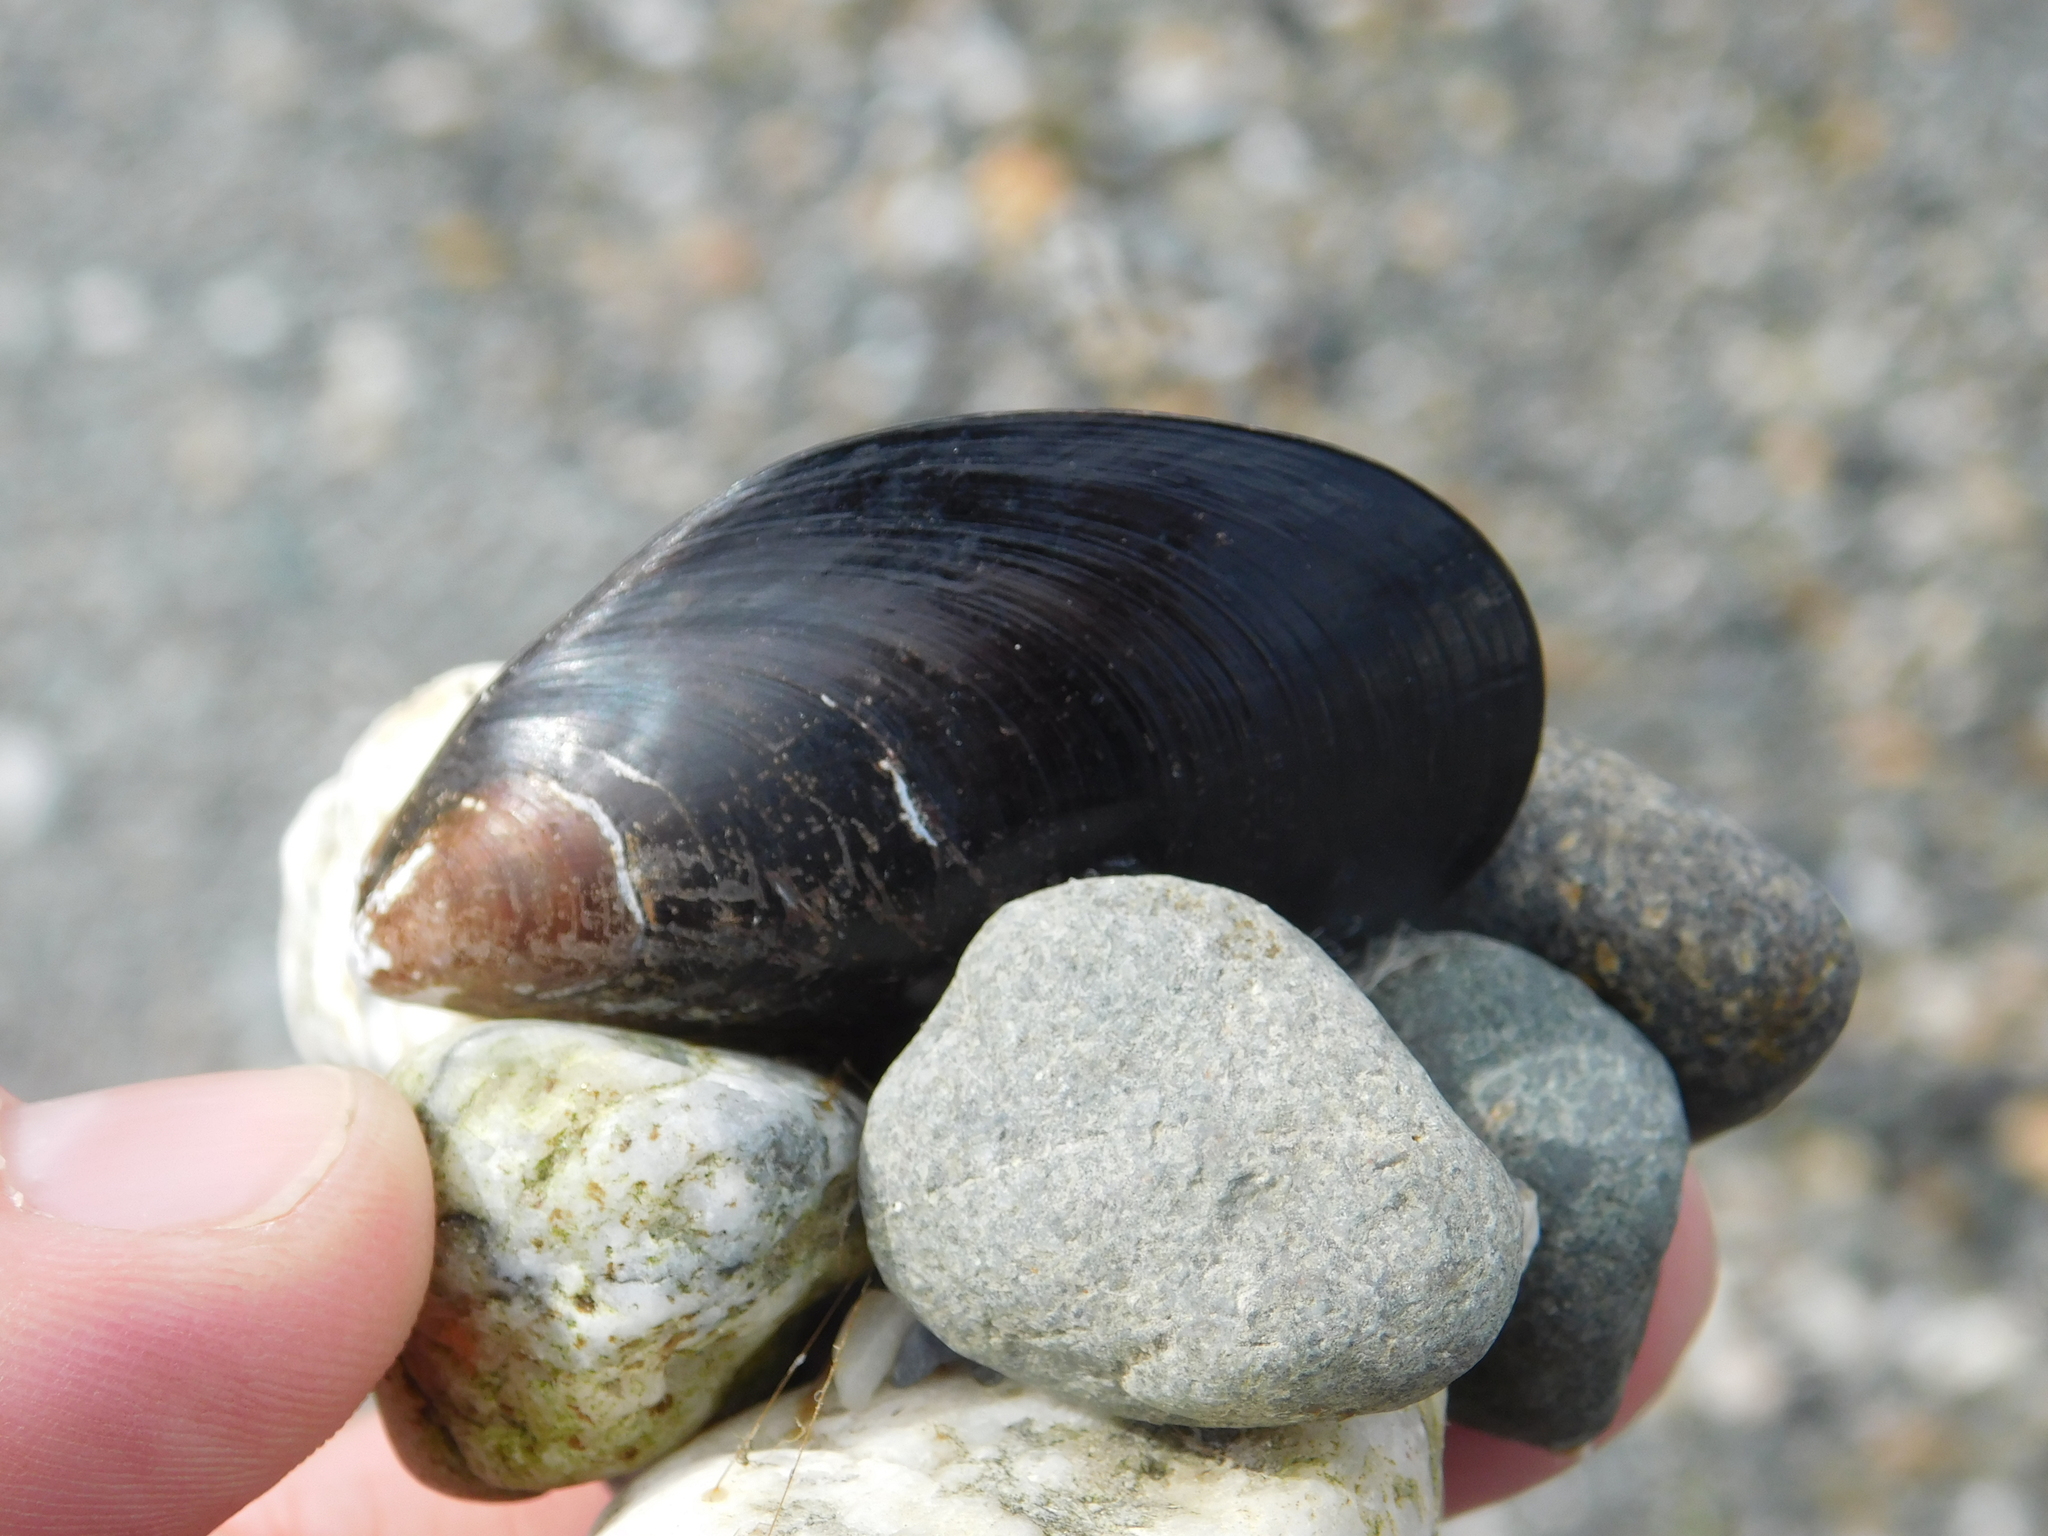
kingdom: Animalia
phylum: Mollusca
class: Bivalvia
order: Mytilida
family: Mytilidae
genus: Mytilus
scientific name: Mytilus chilensis
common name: Chilean mussel
